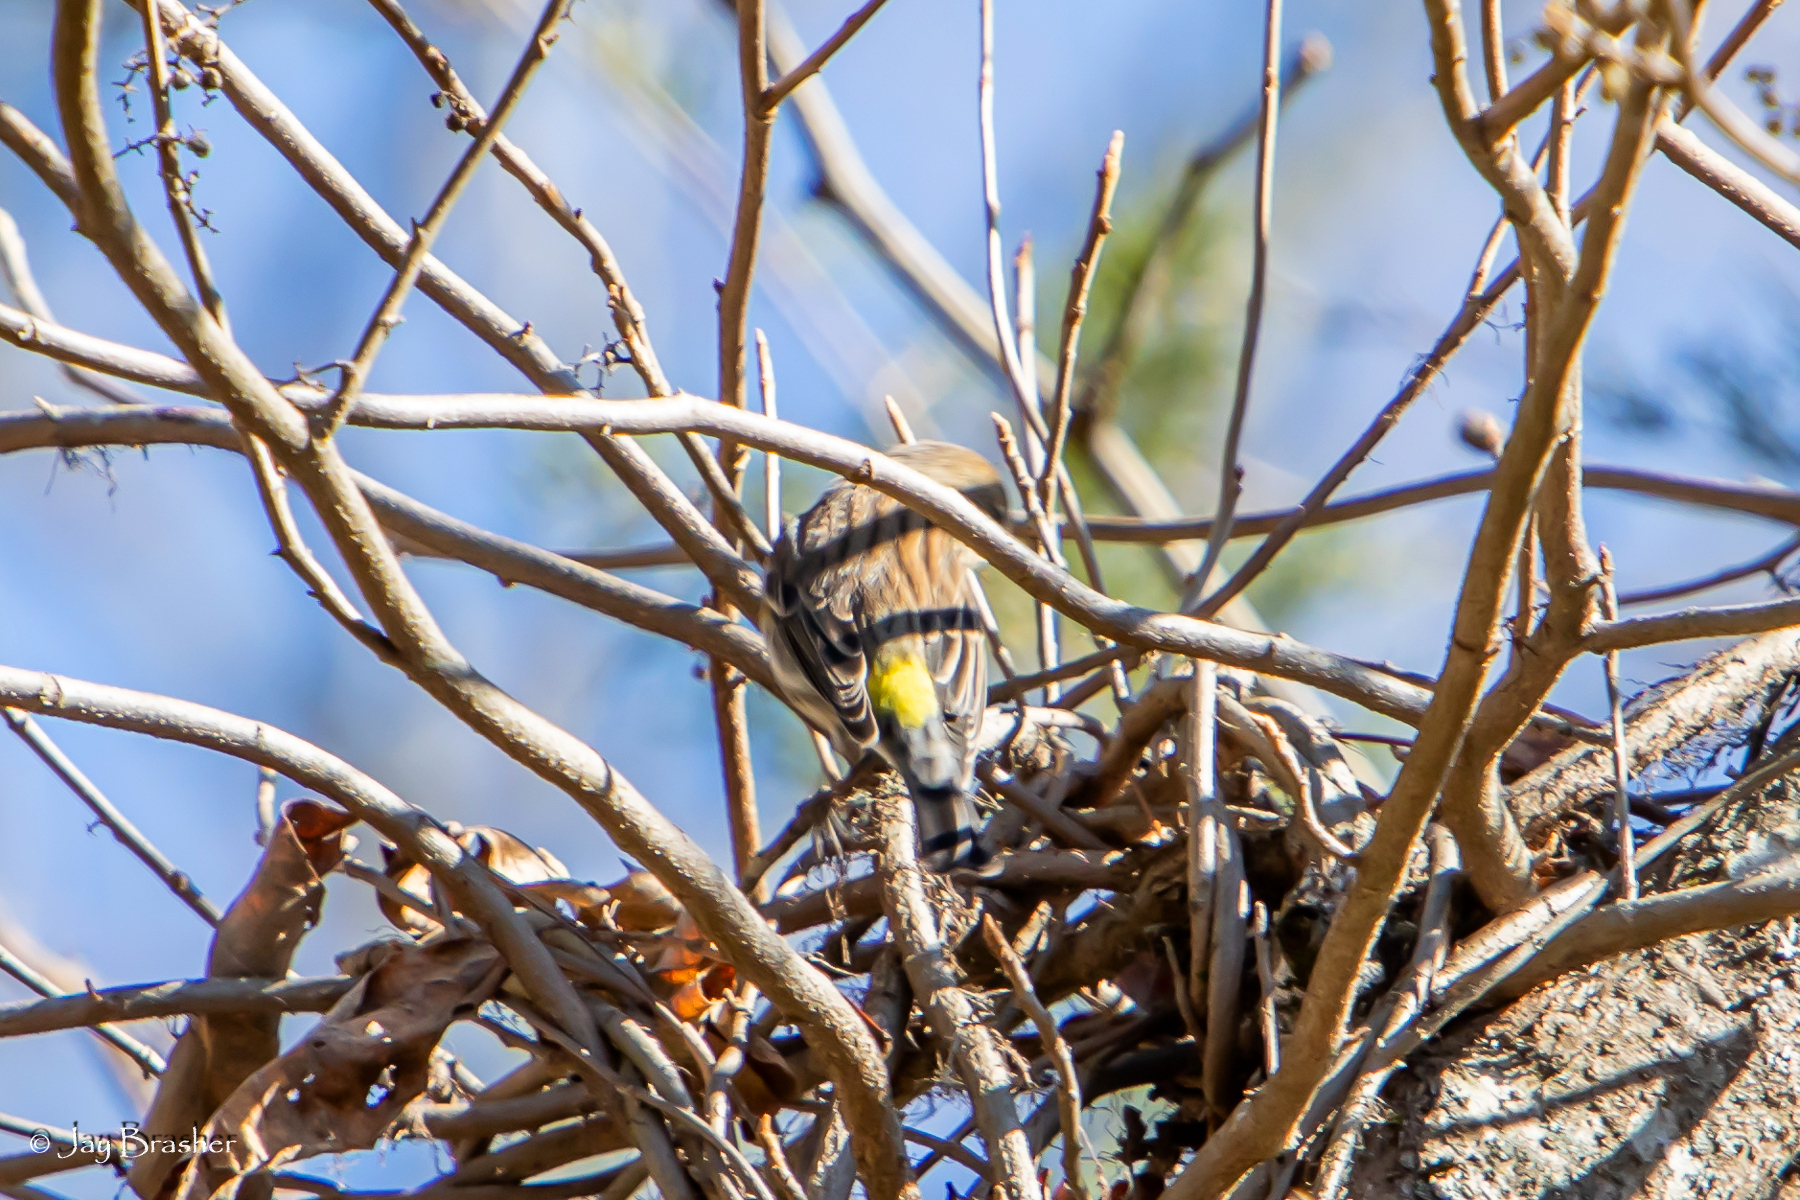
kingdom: Animalia
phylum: Chordata
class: Aves
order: Passeriformes
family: Parulidae
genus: Setophaga
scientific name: Setophaga coronata
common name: Myrtle warbler
